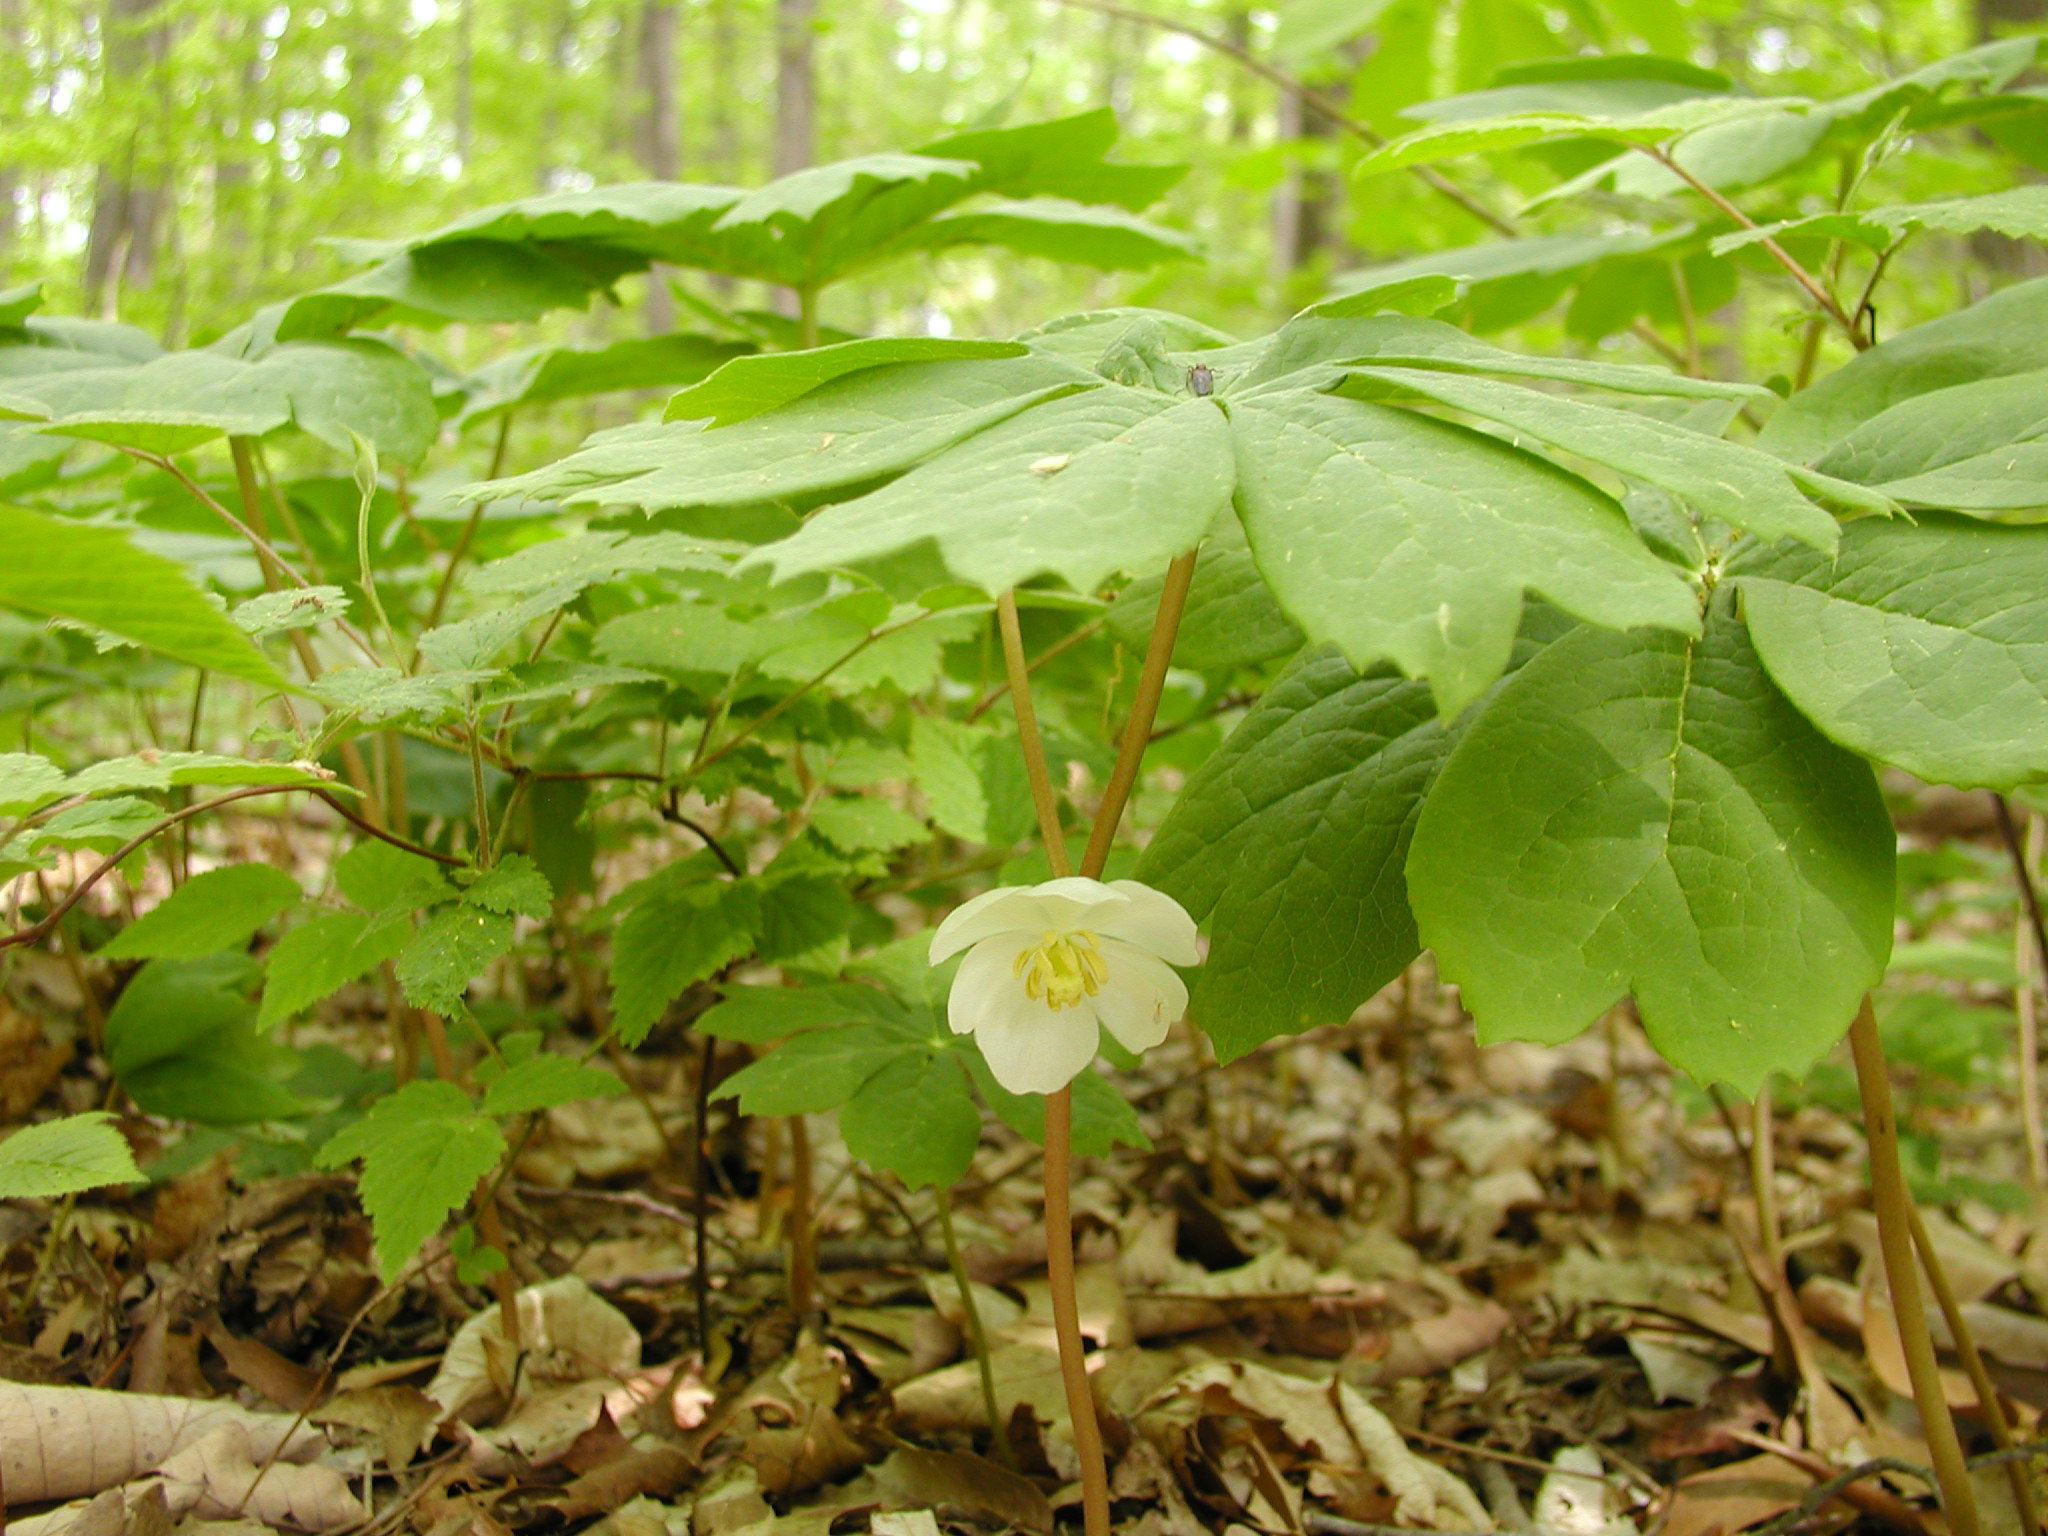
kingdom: Plantae
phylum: Tracheophyta
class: Magnoliopsida
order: Ranunculales
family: Berberidaceae
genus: Podophyllum
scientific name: Podophyllum peltatum
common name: Wild mandrake
